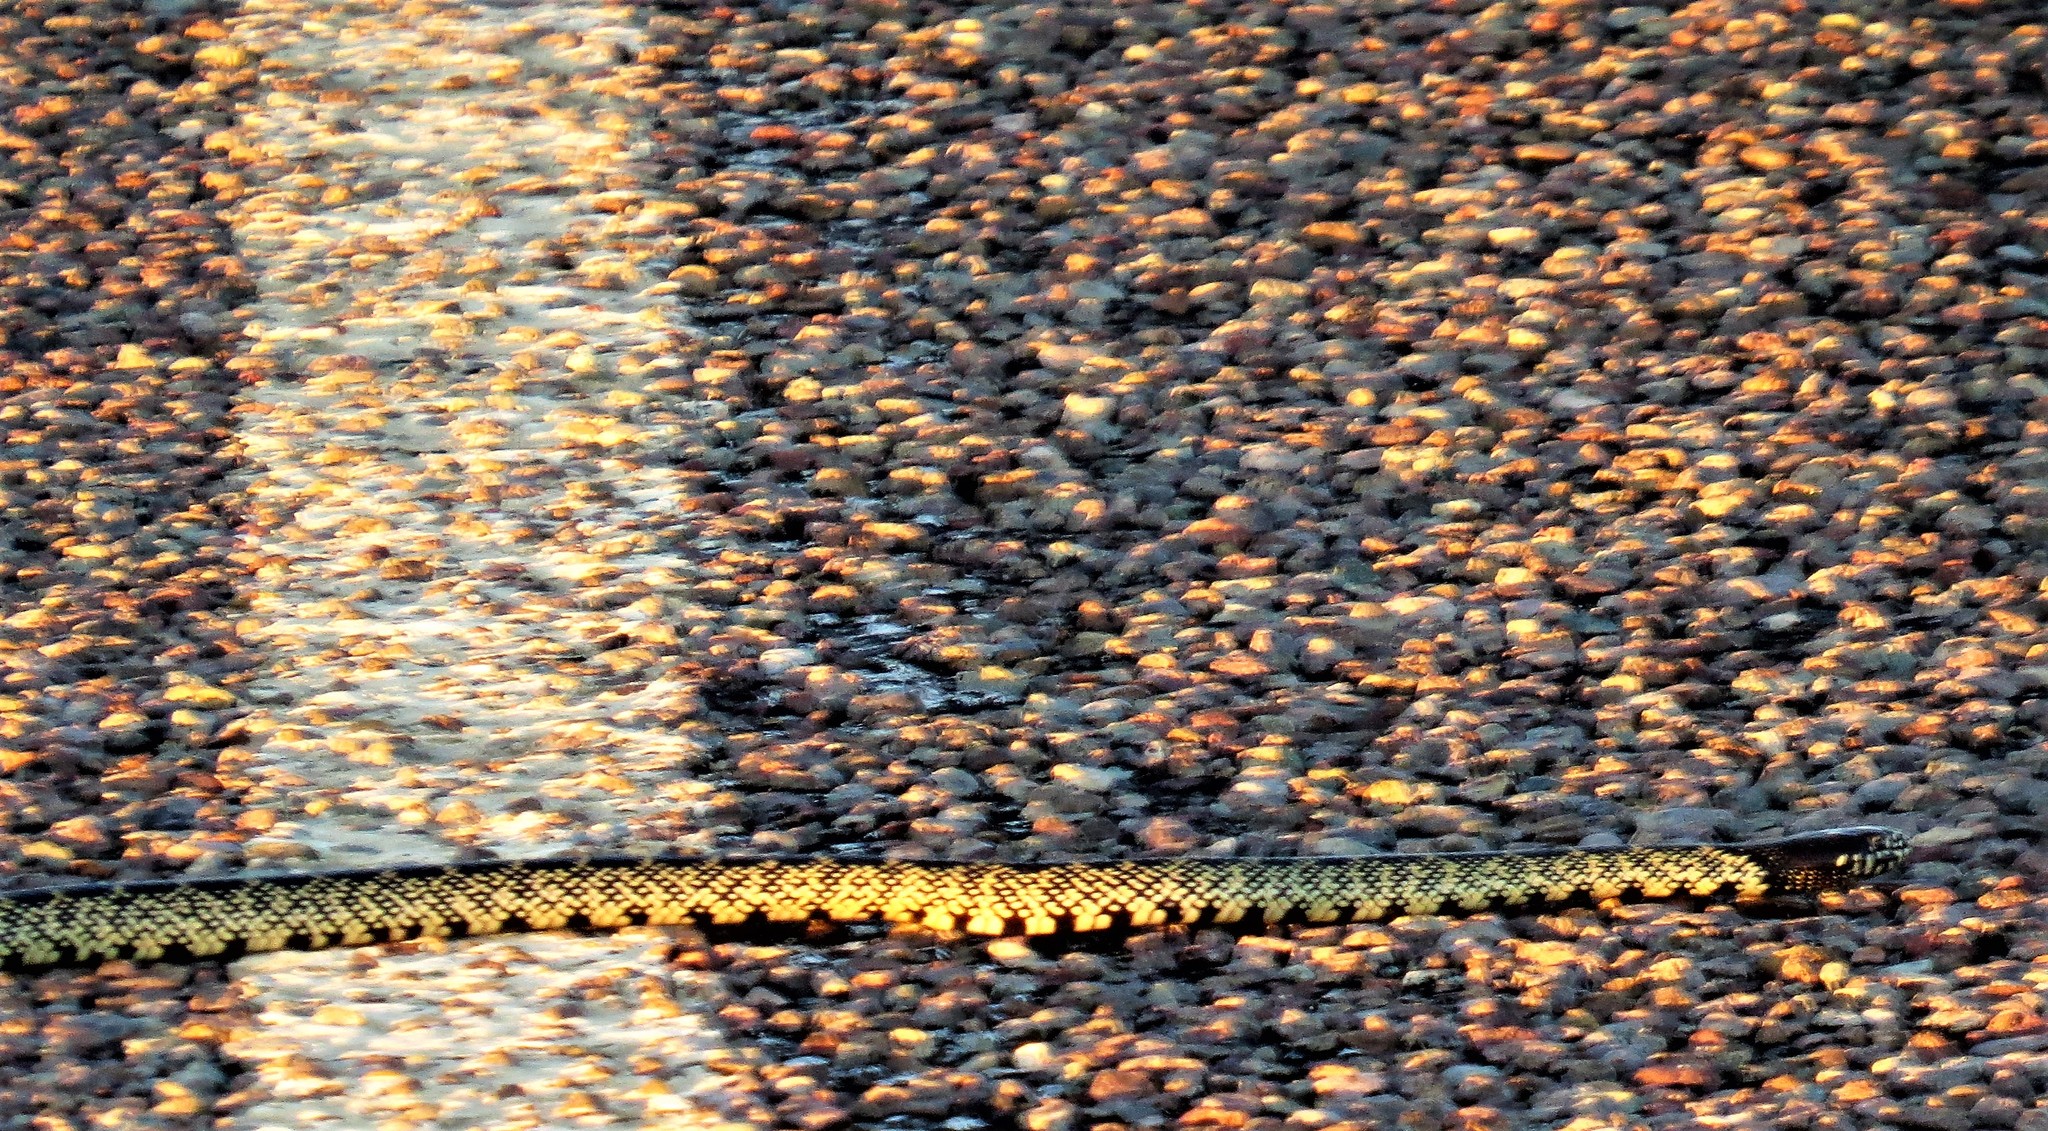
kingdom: Animalia
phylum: Chordata
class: Squamata
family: Colubridae
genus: Lampropeltis
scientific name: Lampropeltis splendida
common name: Desert kingsnake
